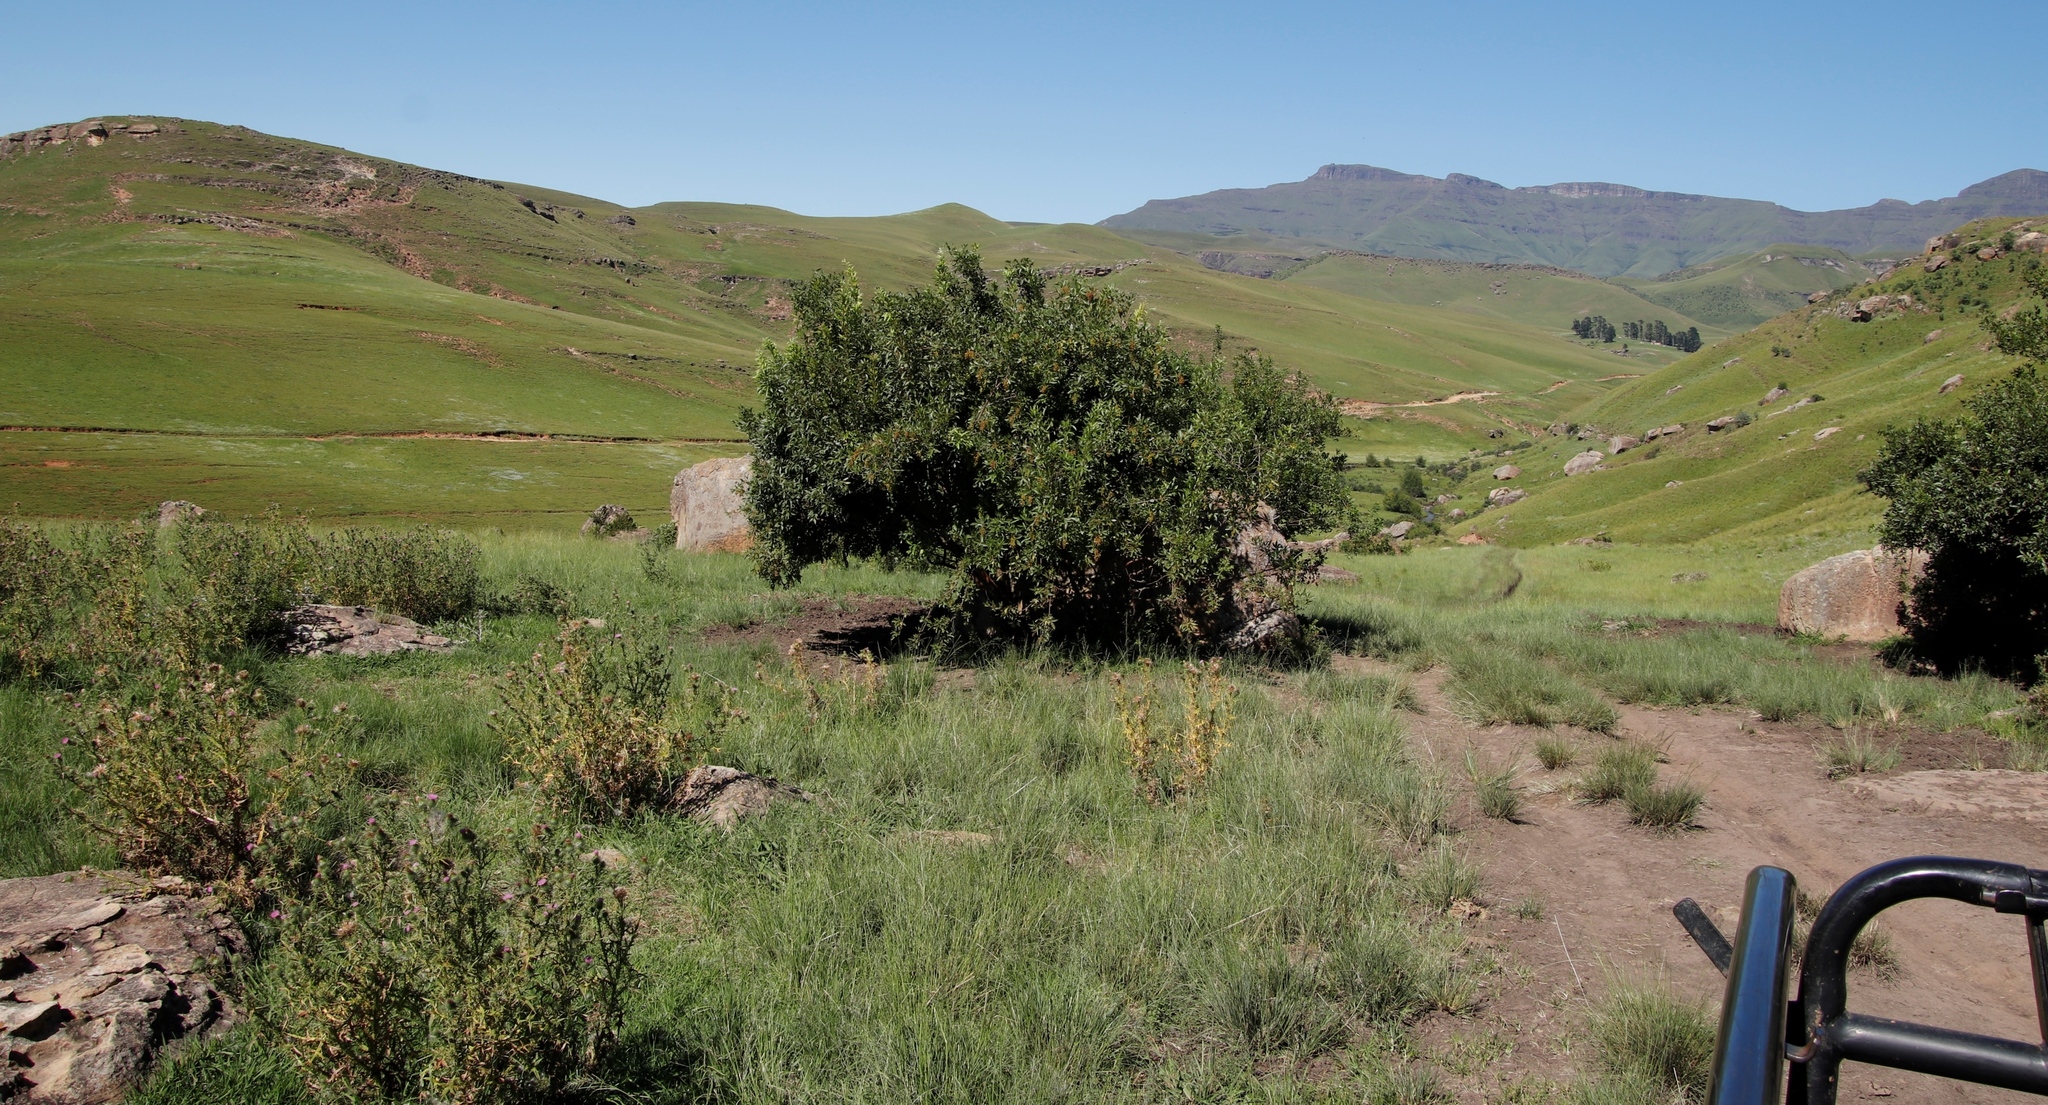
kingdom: Plantae
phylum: Tracheophyta
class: Magnoliopsida
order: Sapindales
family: Anacardiaceae
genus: Searsia
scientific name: Searsia pyroides
